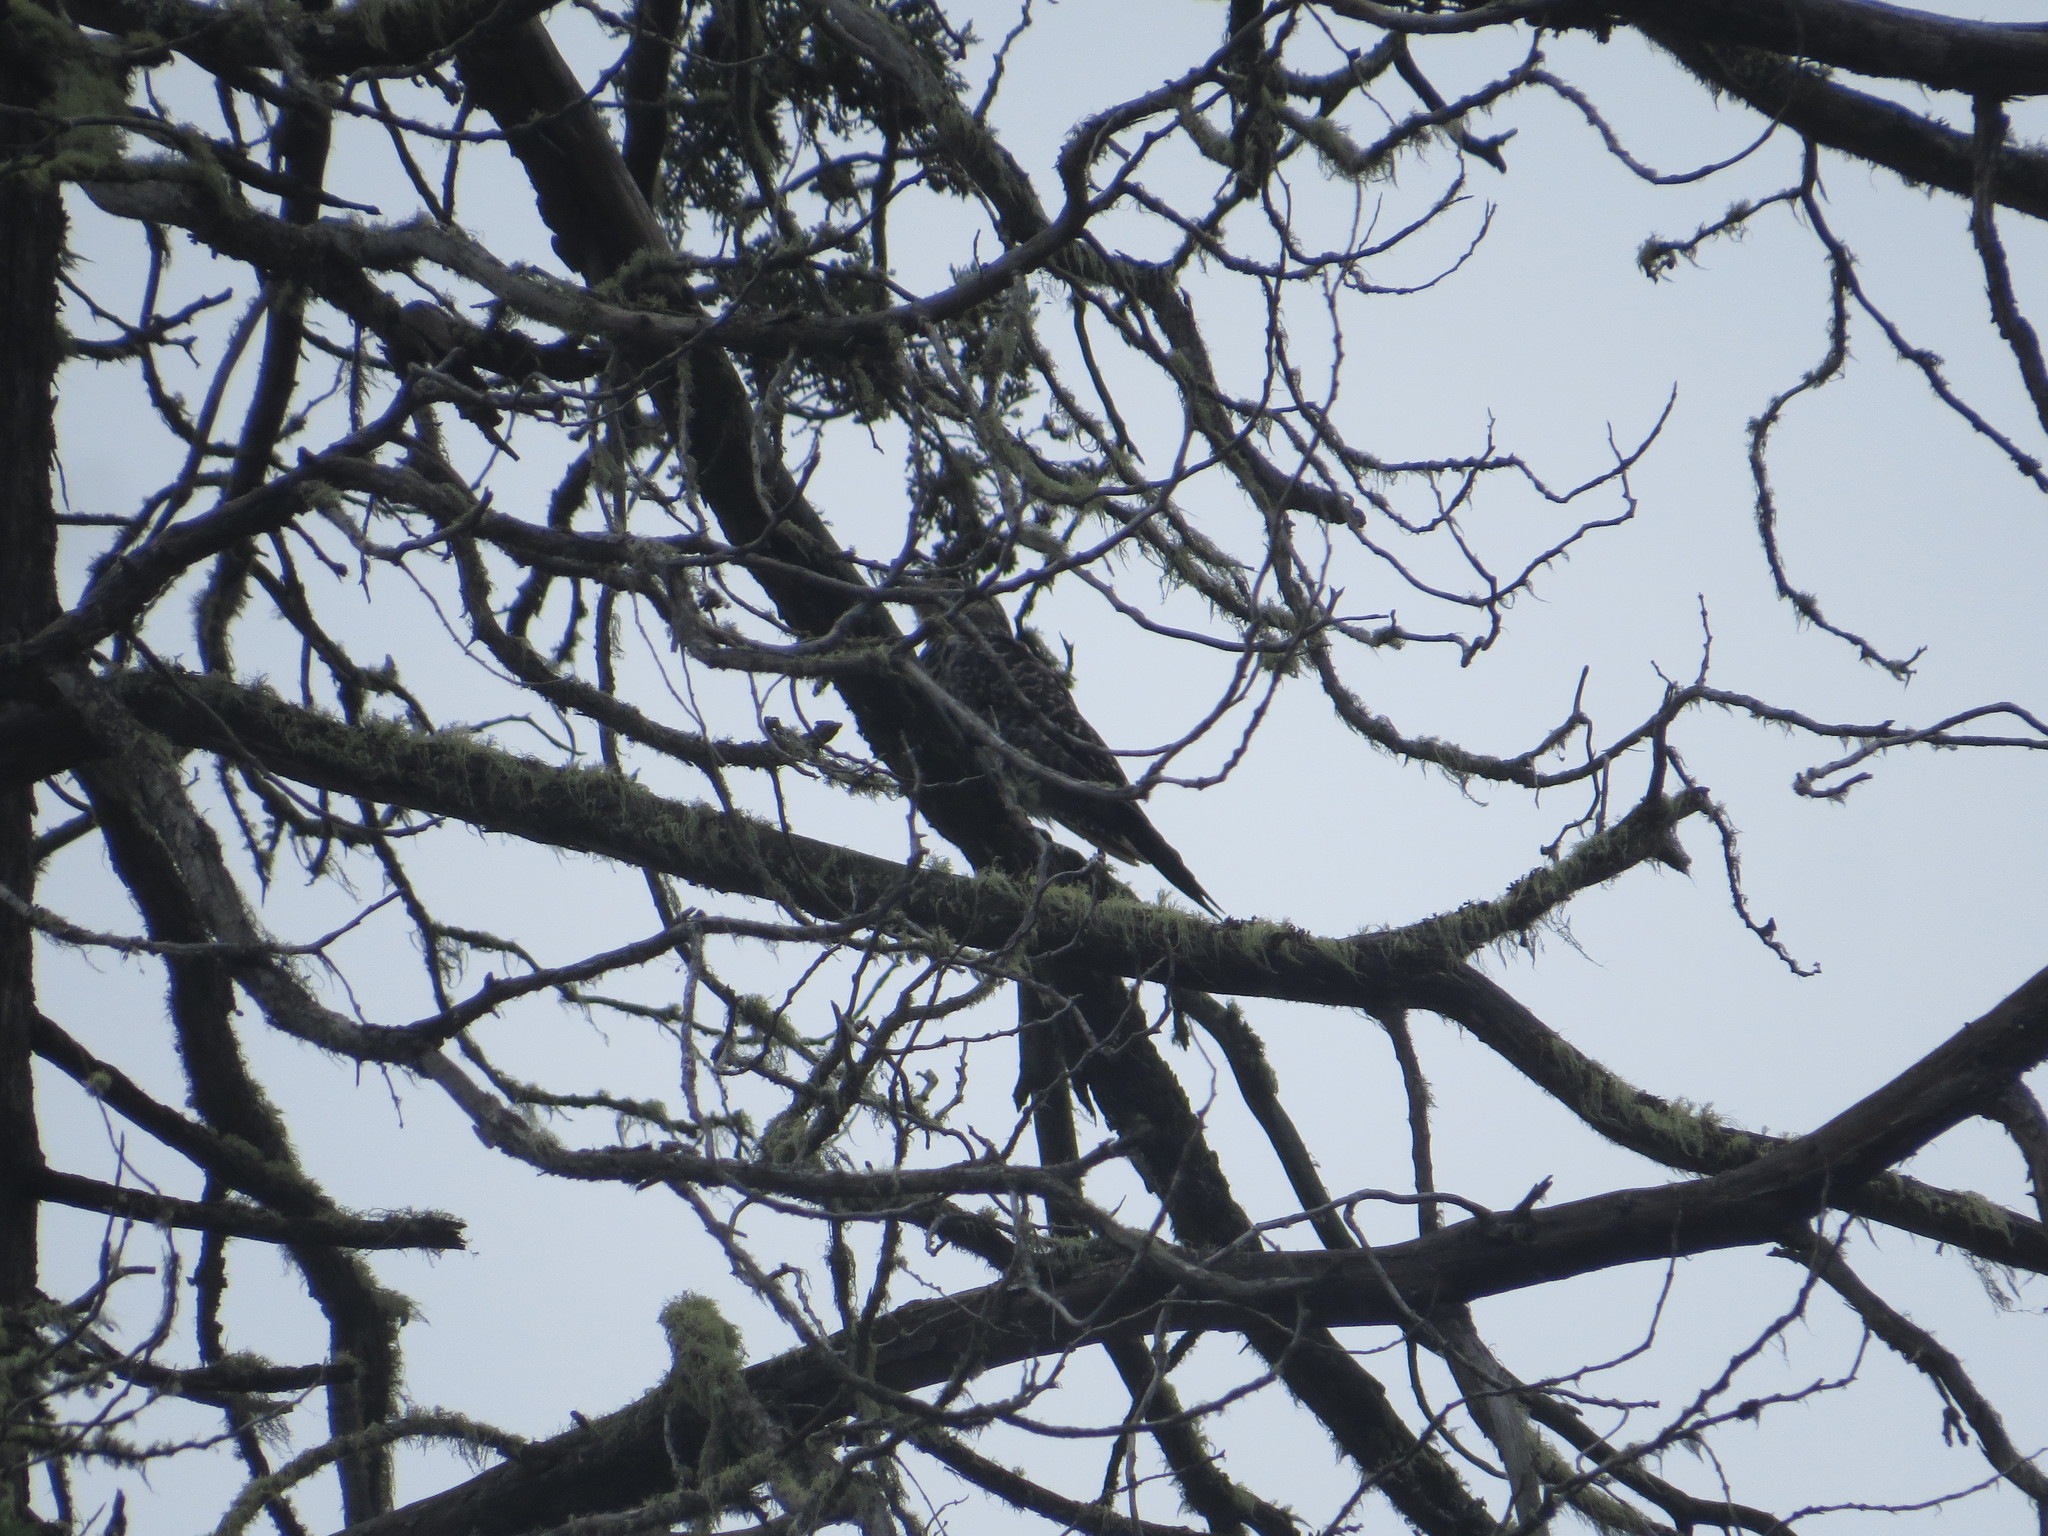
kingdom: Animalia
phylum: Chordata
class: Aves
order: Piciformes
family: Picidae
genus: Colaptes
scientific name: Colaptes pitius
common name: Chilean flicker
